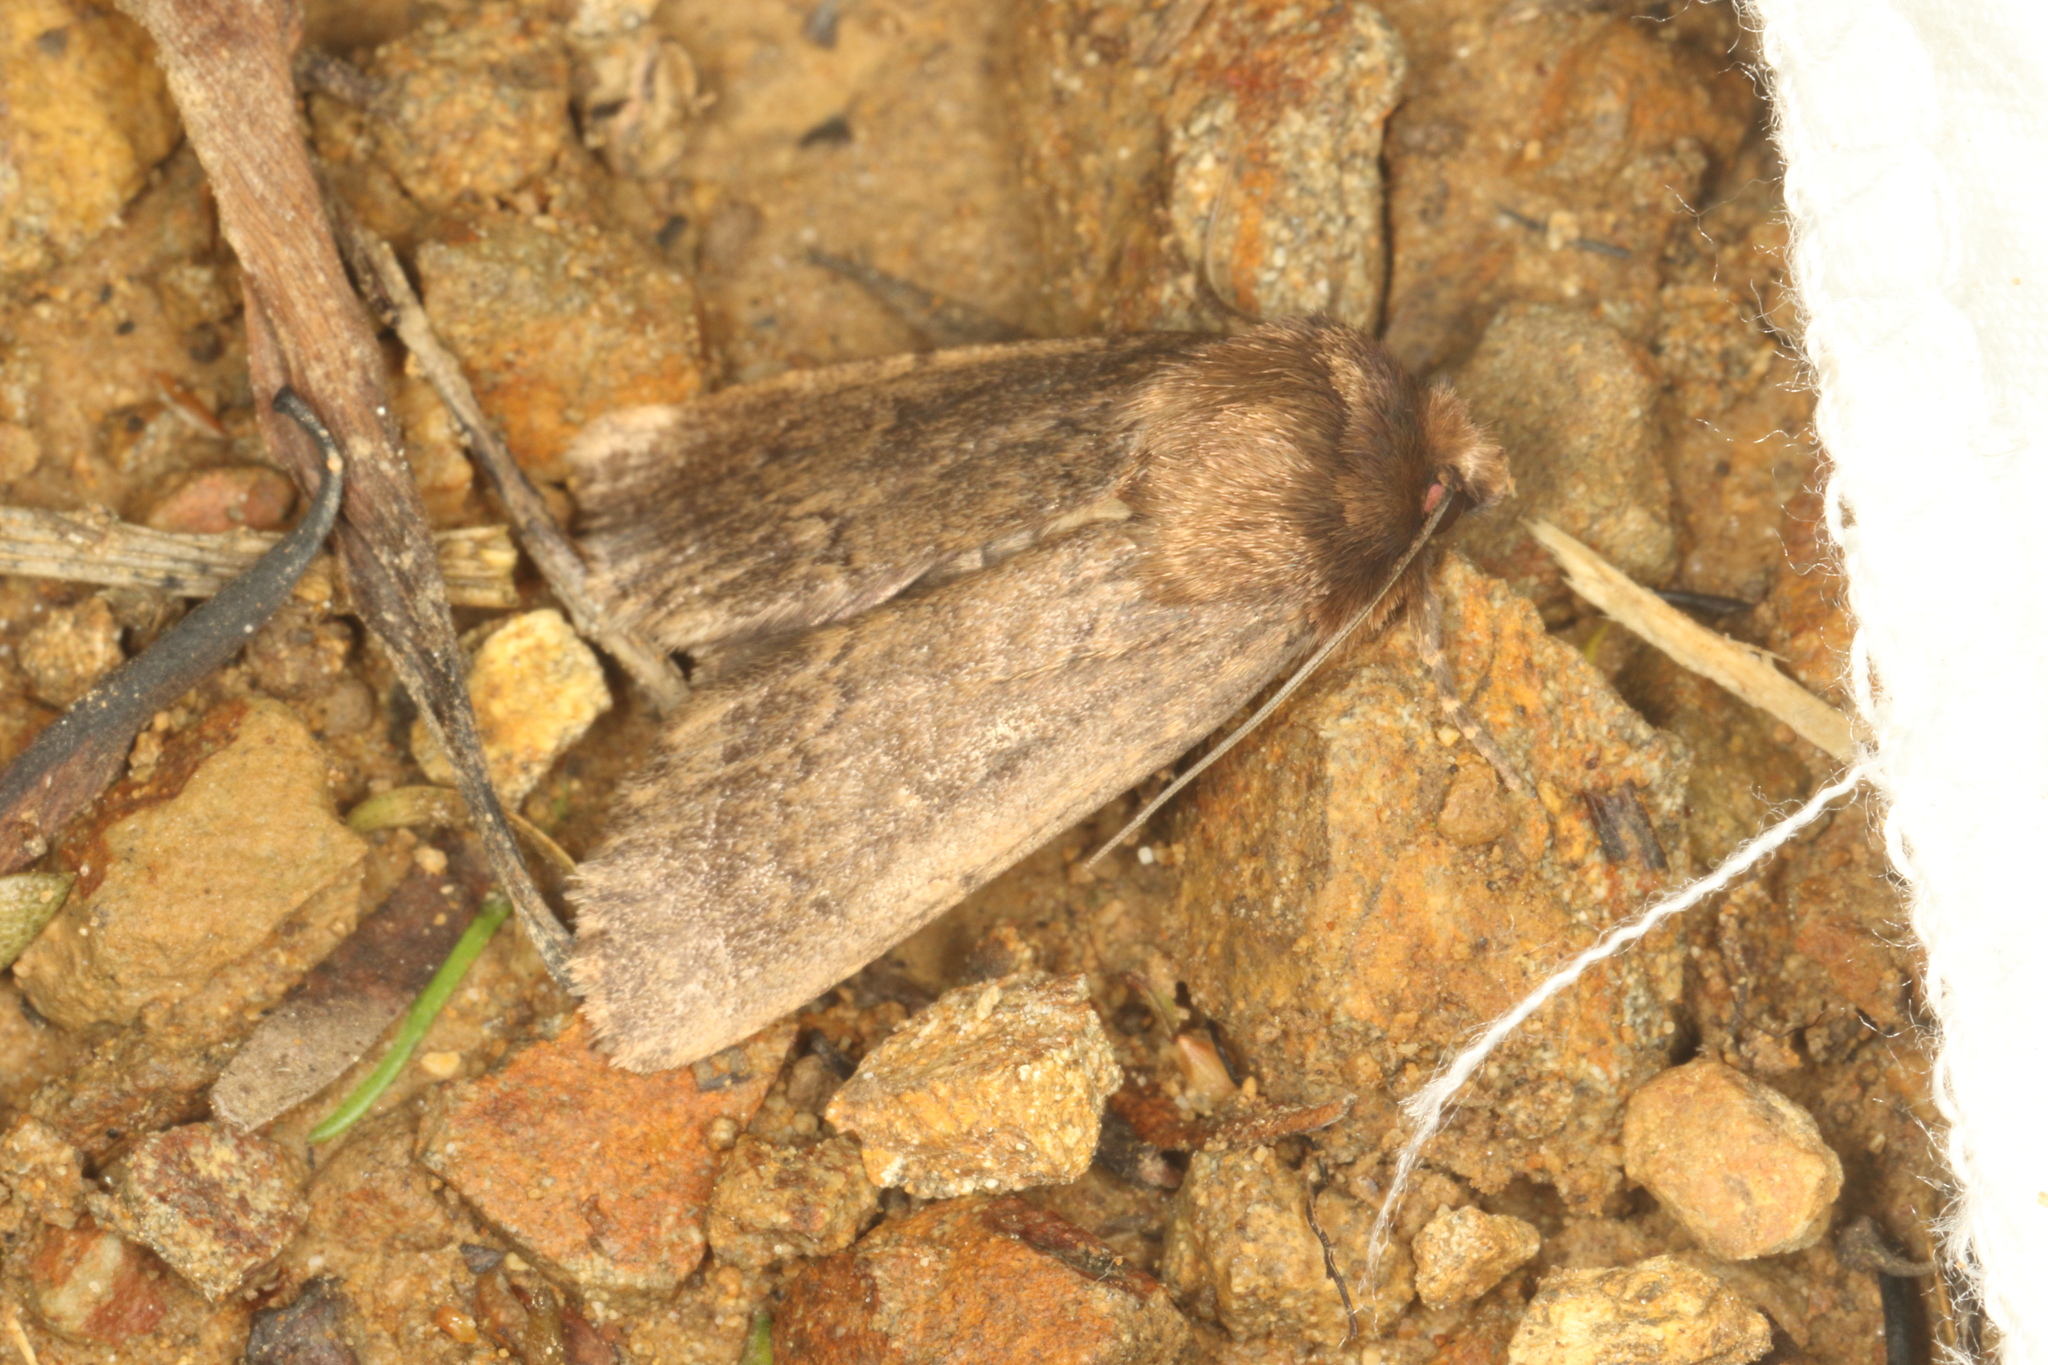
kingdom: Animalia
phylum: Arthropoda
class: Insecta
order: Lepidoptera
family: Noctuidae
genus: Bityla
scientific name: Bityla defigurata
